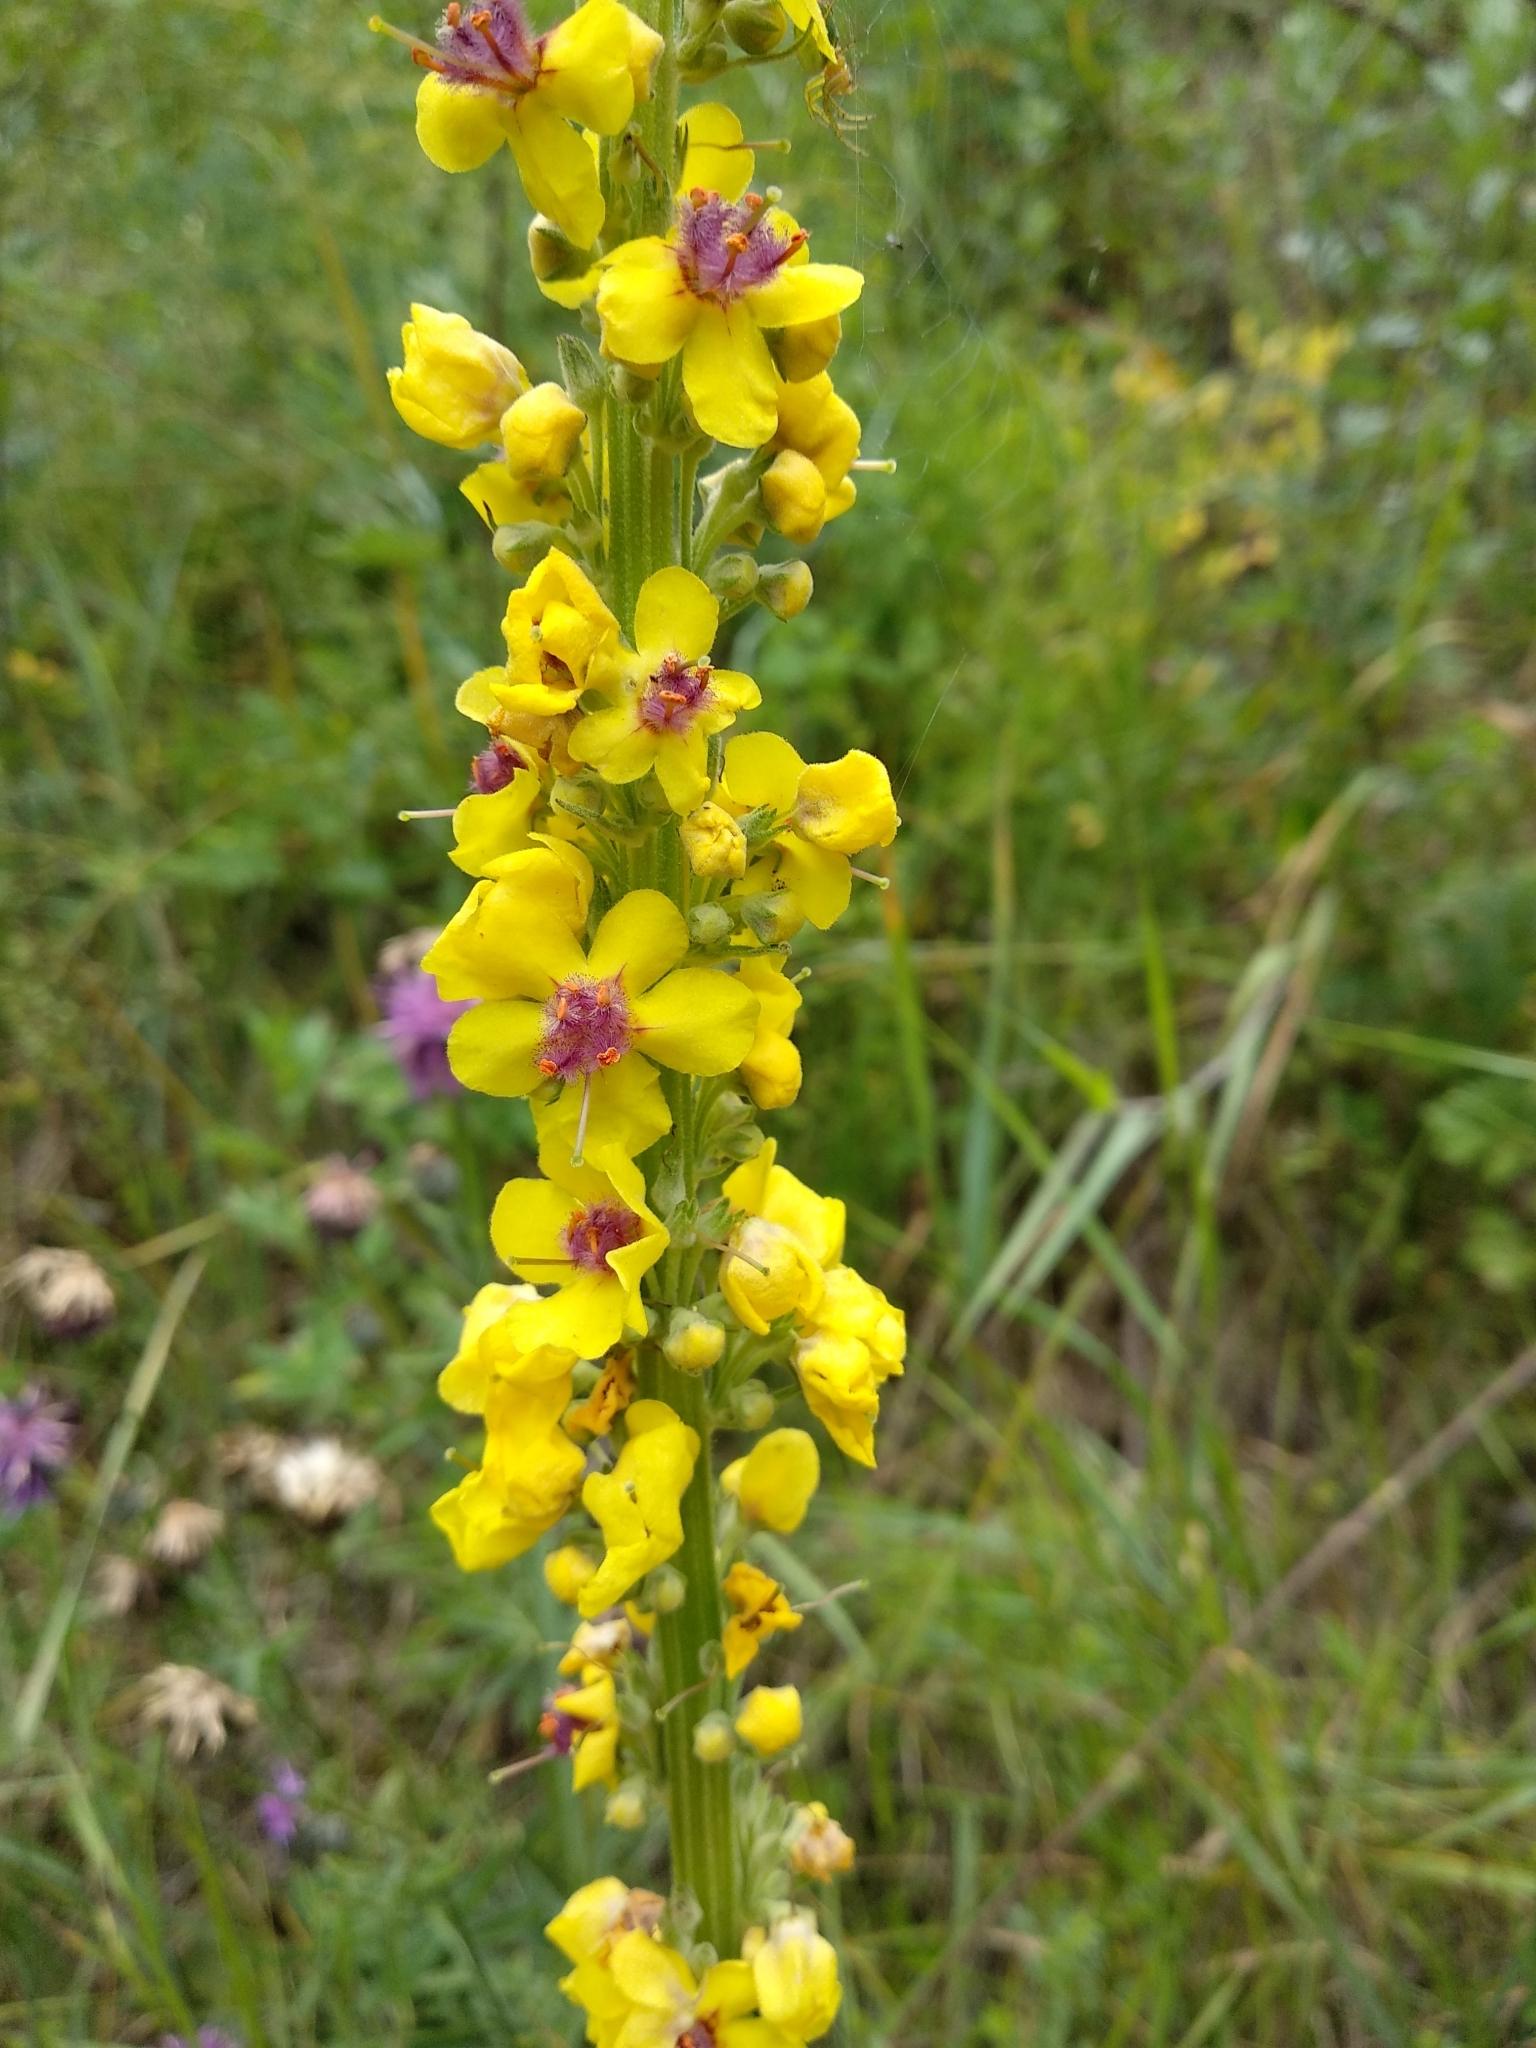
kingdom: Plantae
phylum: Tracheophyta
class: Magnoliopsida
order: Lamiales
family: Scrophulariaceae
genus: Verbascum
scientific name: Verbascum nigrum
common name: Dark mullein
